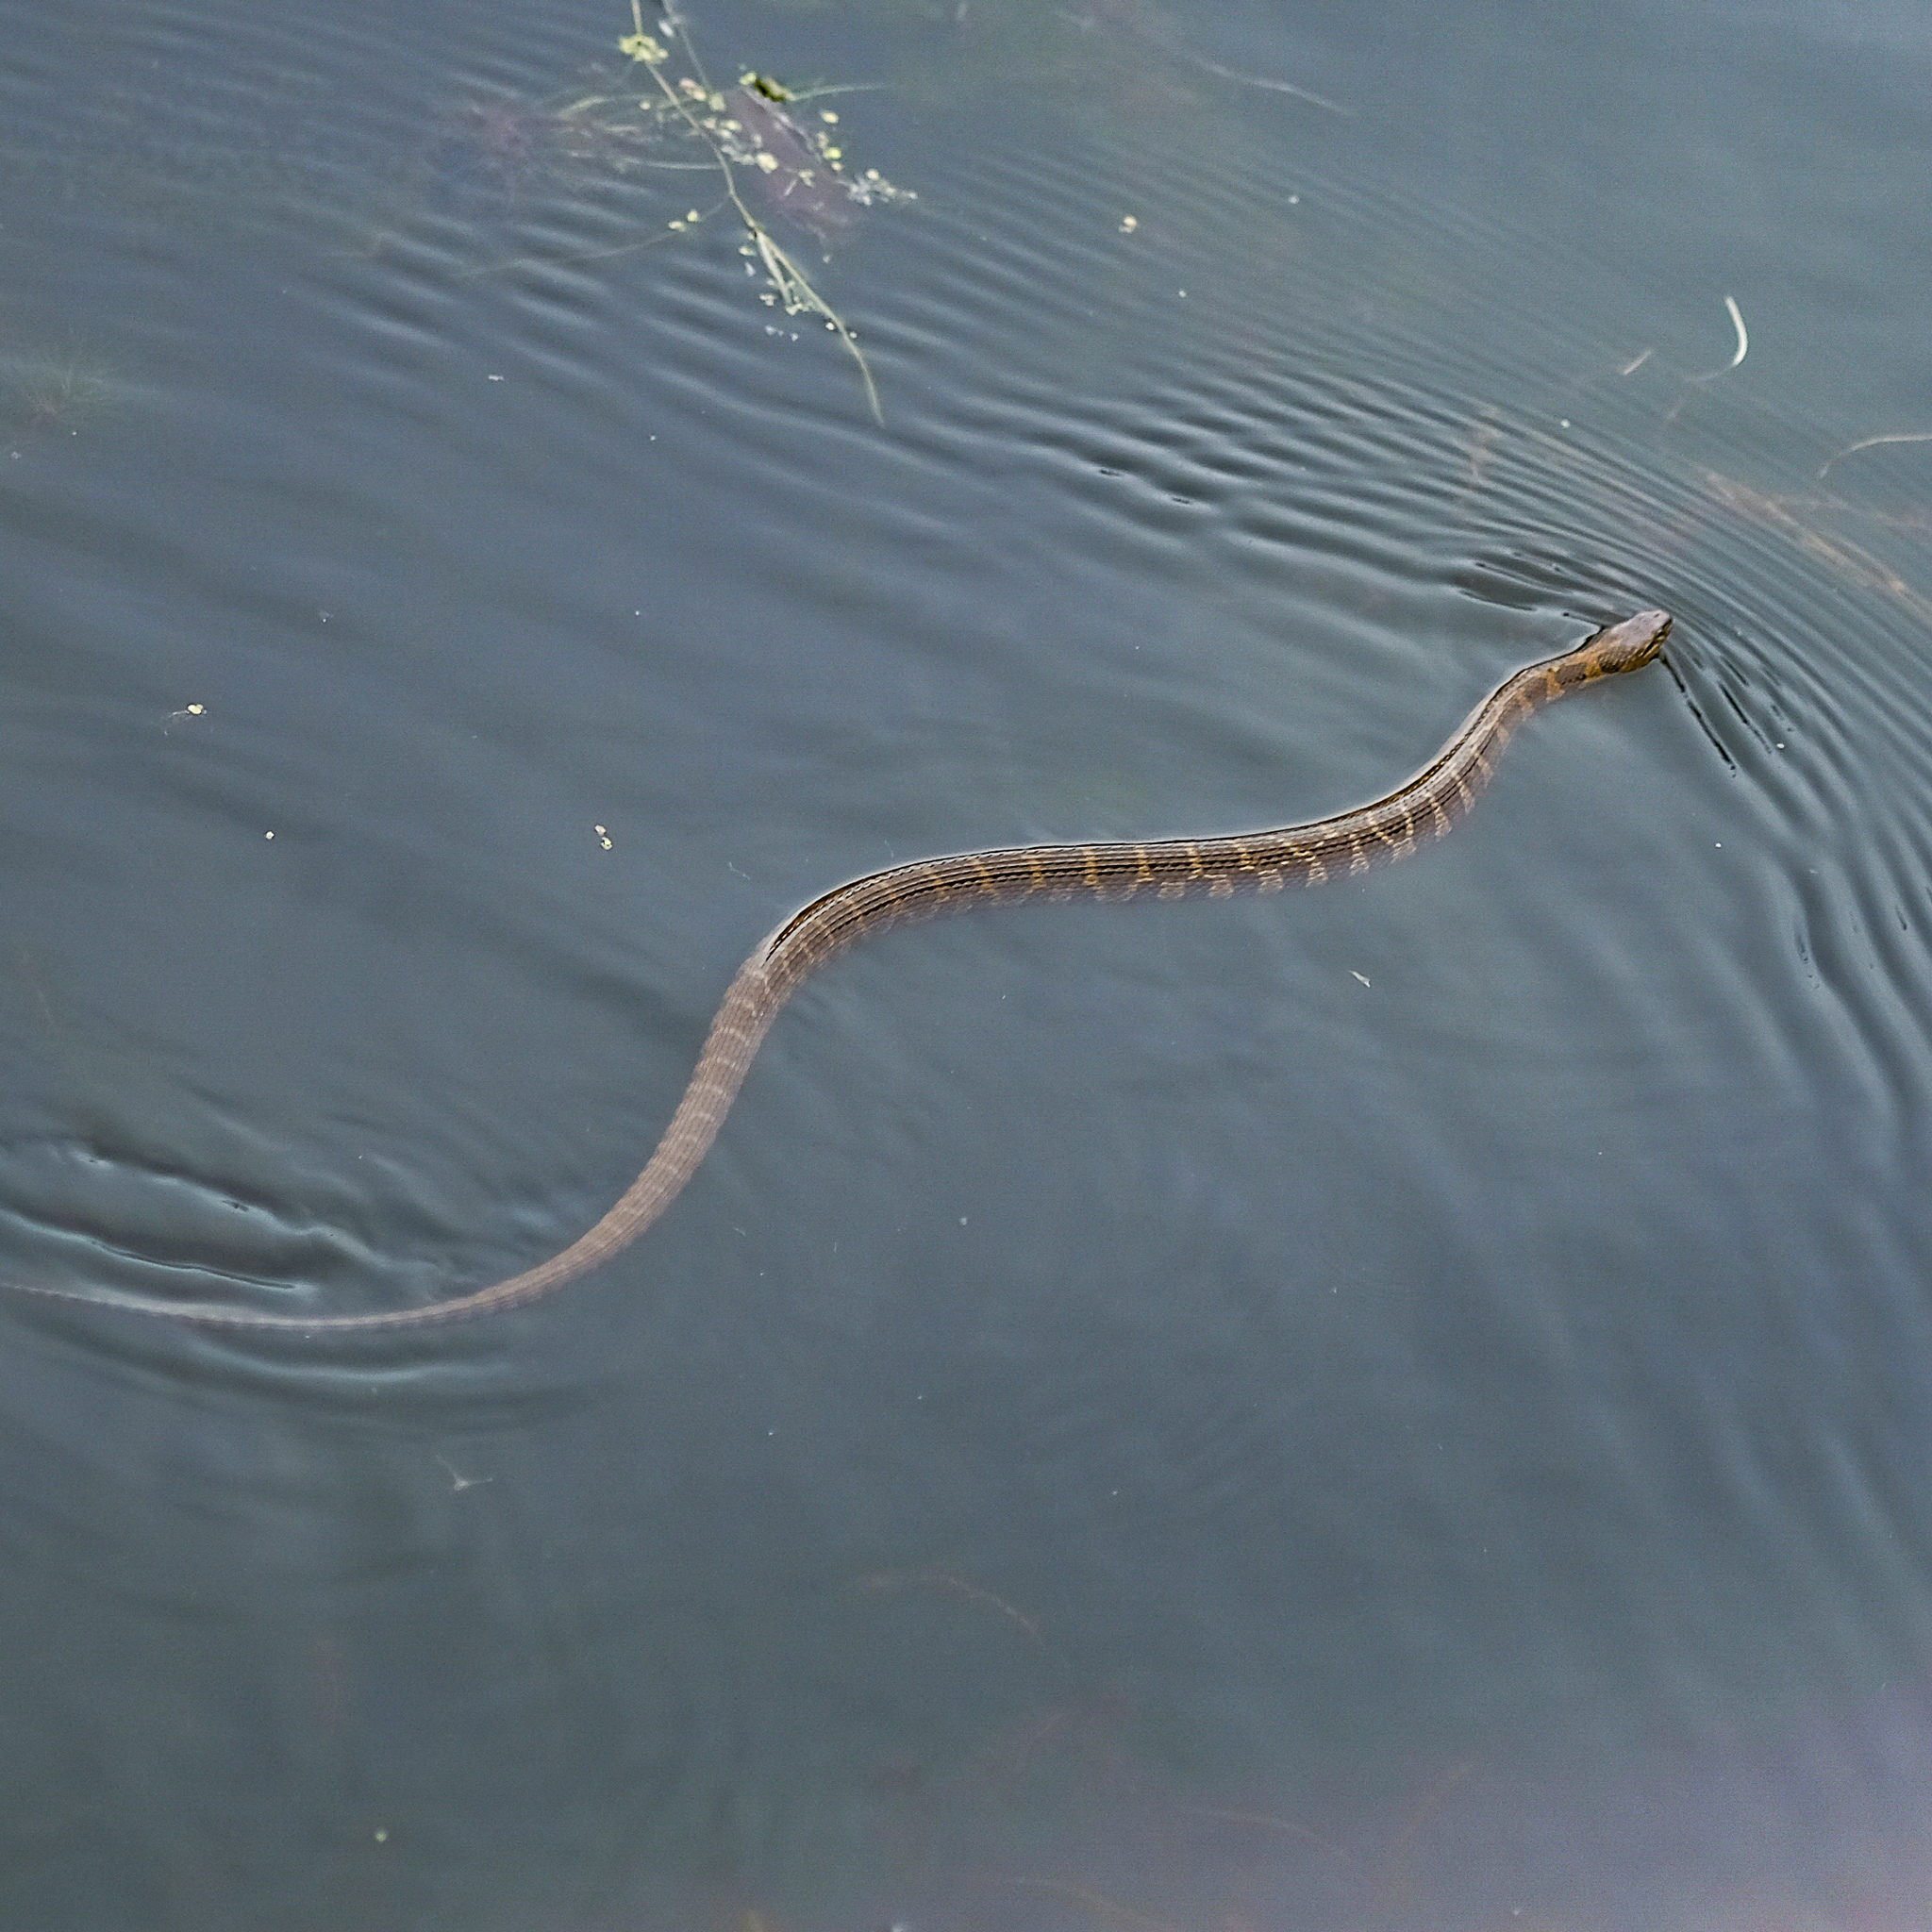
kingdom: Animalia
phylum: Chordata
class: Squamata
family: Colubridae
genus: Nerodia
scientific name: Nerodia sipedon
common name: Northern water snake
